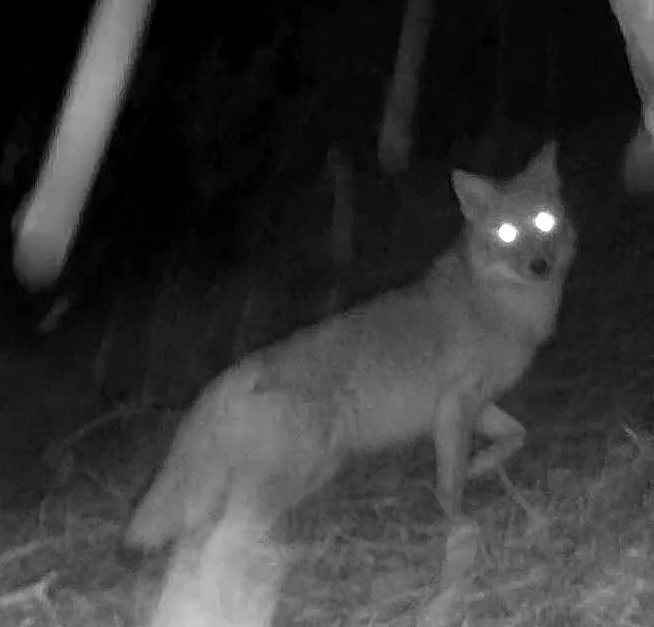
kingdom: Animalia
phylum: Chordata
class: Mammalia
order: Carnivora
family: Canidae
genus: Canis
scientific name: Canis latrans
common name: Coyote
